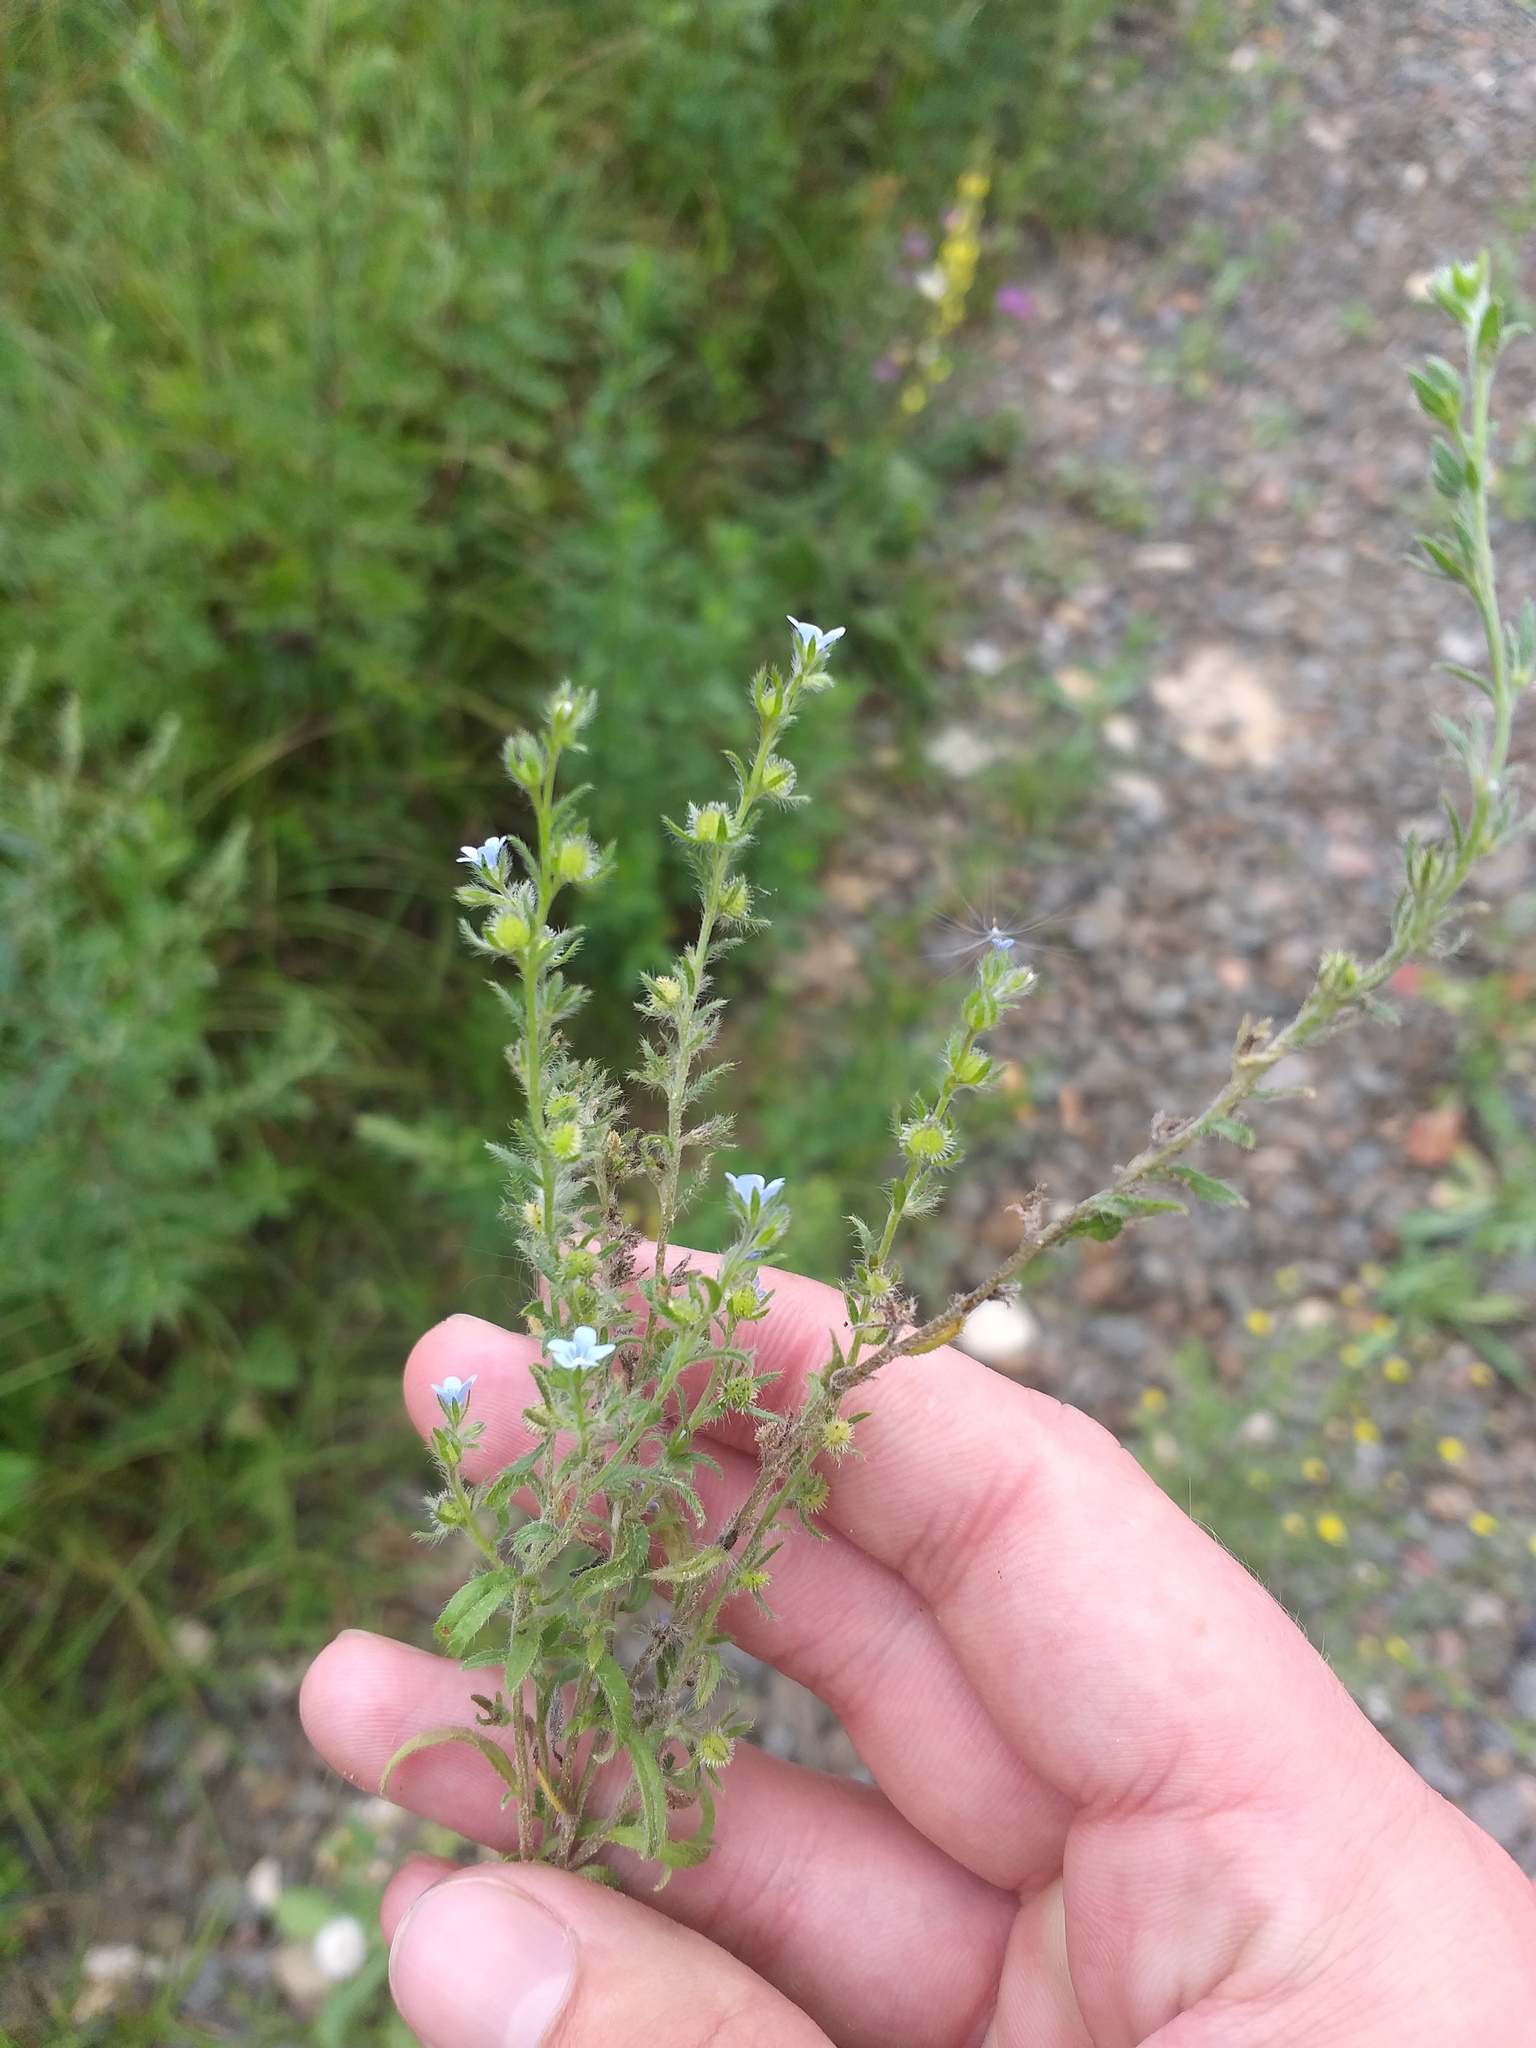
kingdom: Plantae
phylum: Tracheophyta
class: Magnoliopsida
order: Boraginales
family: Boraginaceae
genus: Lappula
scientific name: Lappula squarrosa
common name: European stickseed
